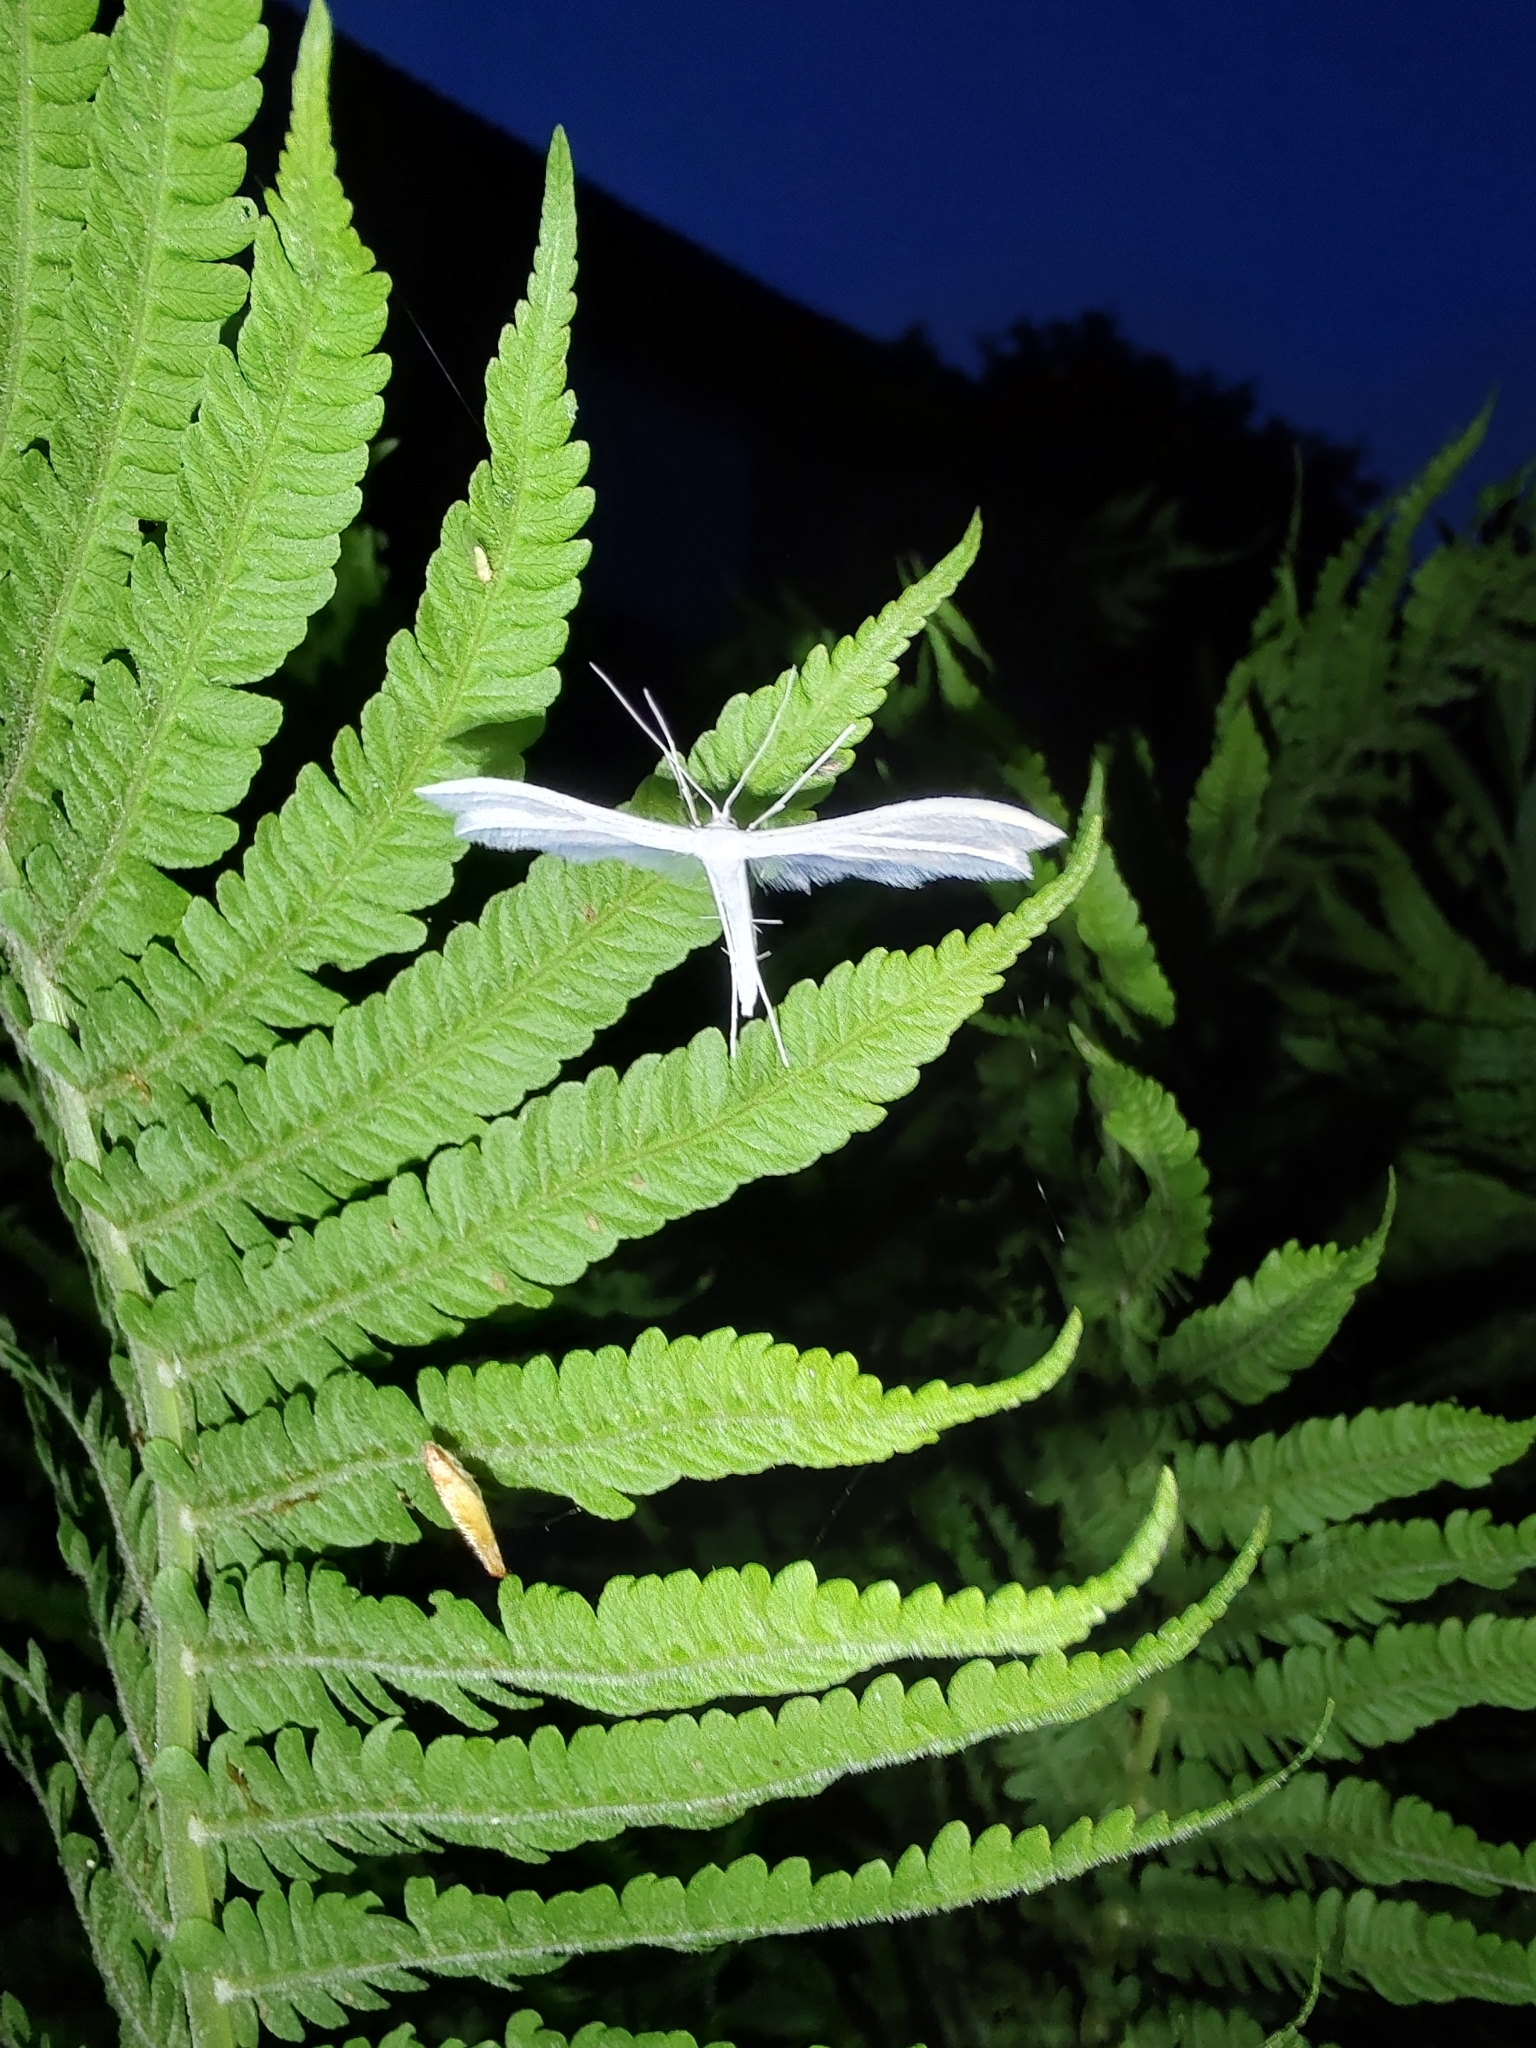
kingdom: Animalia
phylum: Arthropoda
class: Insecta
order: Lepidoptera
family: Pterophoridae
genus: Pterophorus
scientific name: Pterophorus pentadactyla
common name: White plume moth
